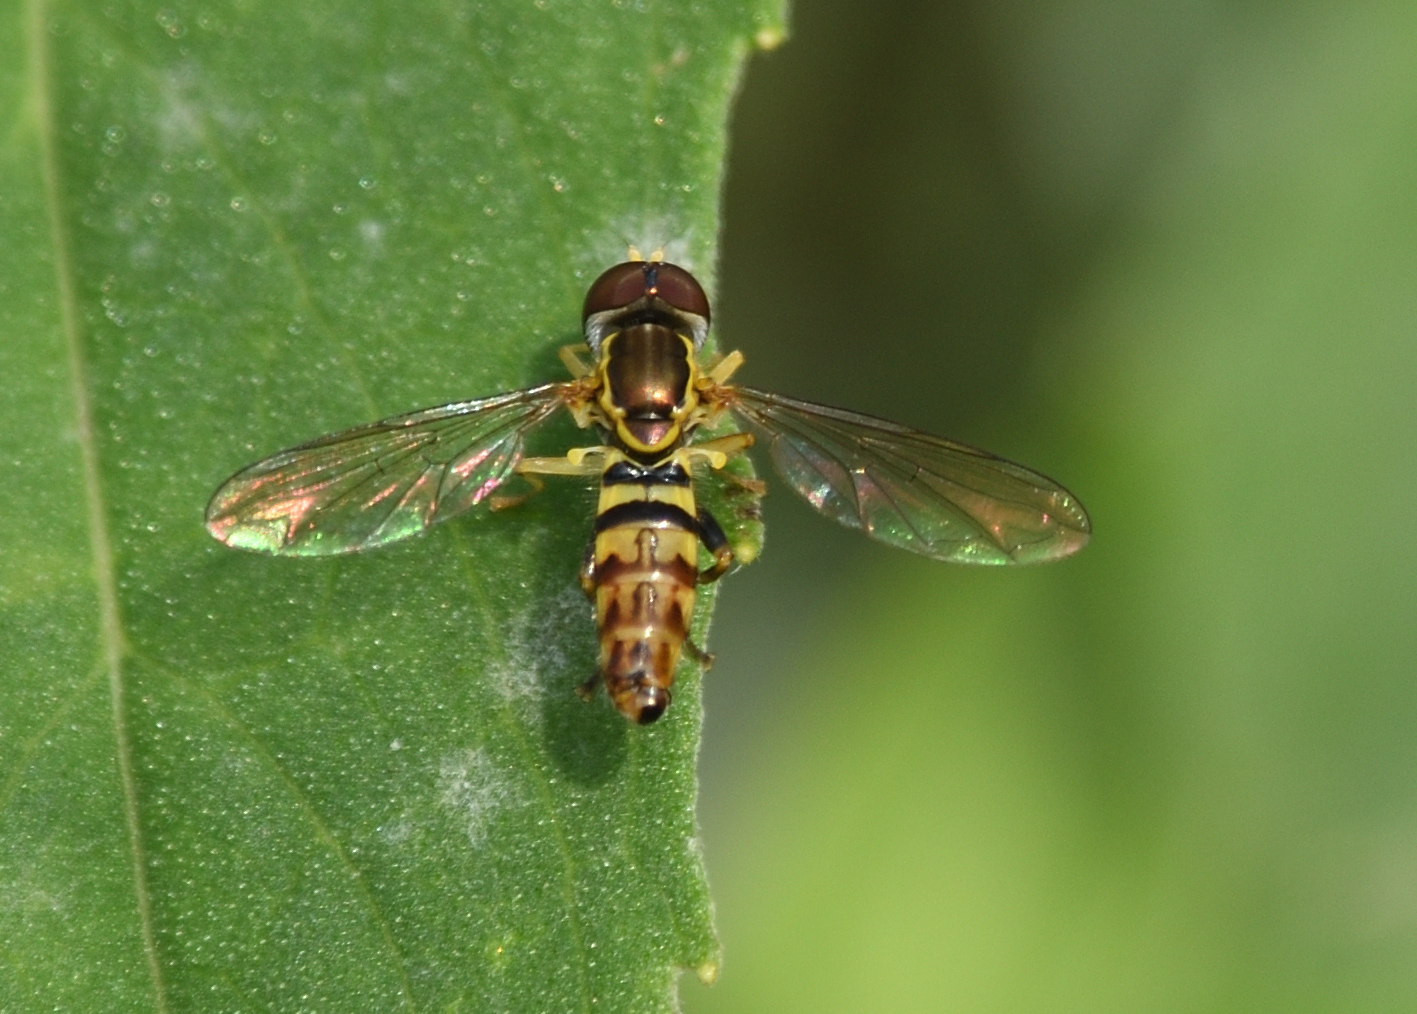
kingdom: Animalia
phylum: Arthropoda
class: Insecta
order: Diptera
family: Syrphidae
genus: Toxomerus
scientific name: Toxomerus geminatus
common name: Eastern calligrapher
